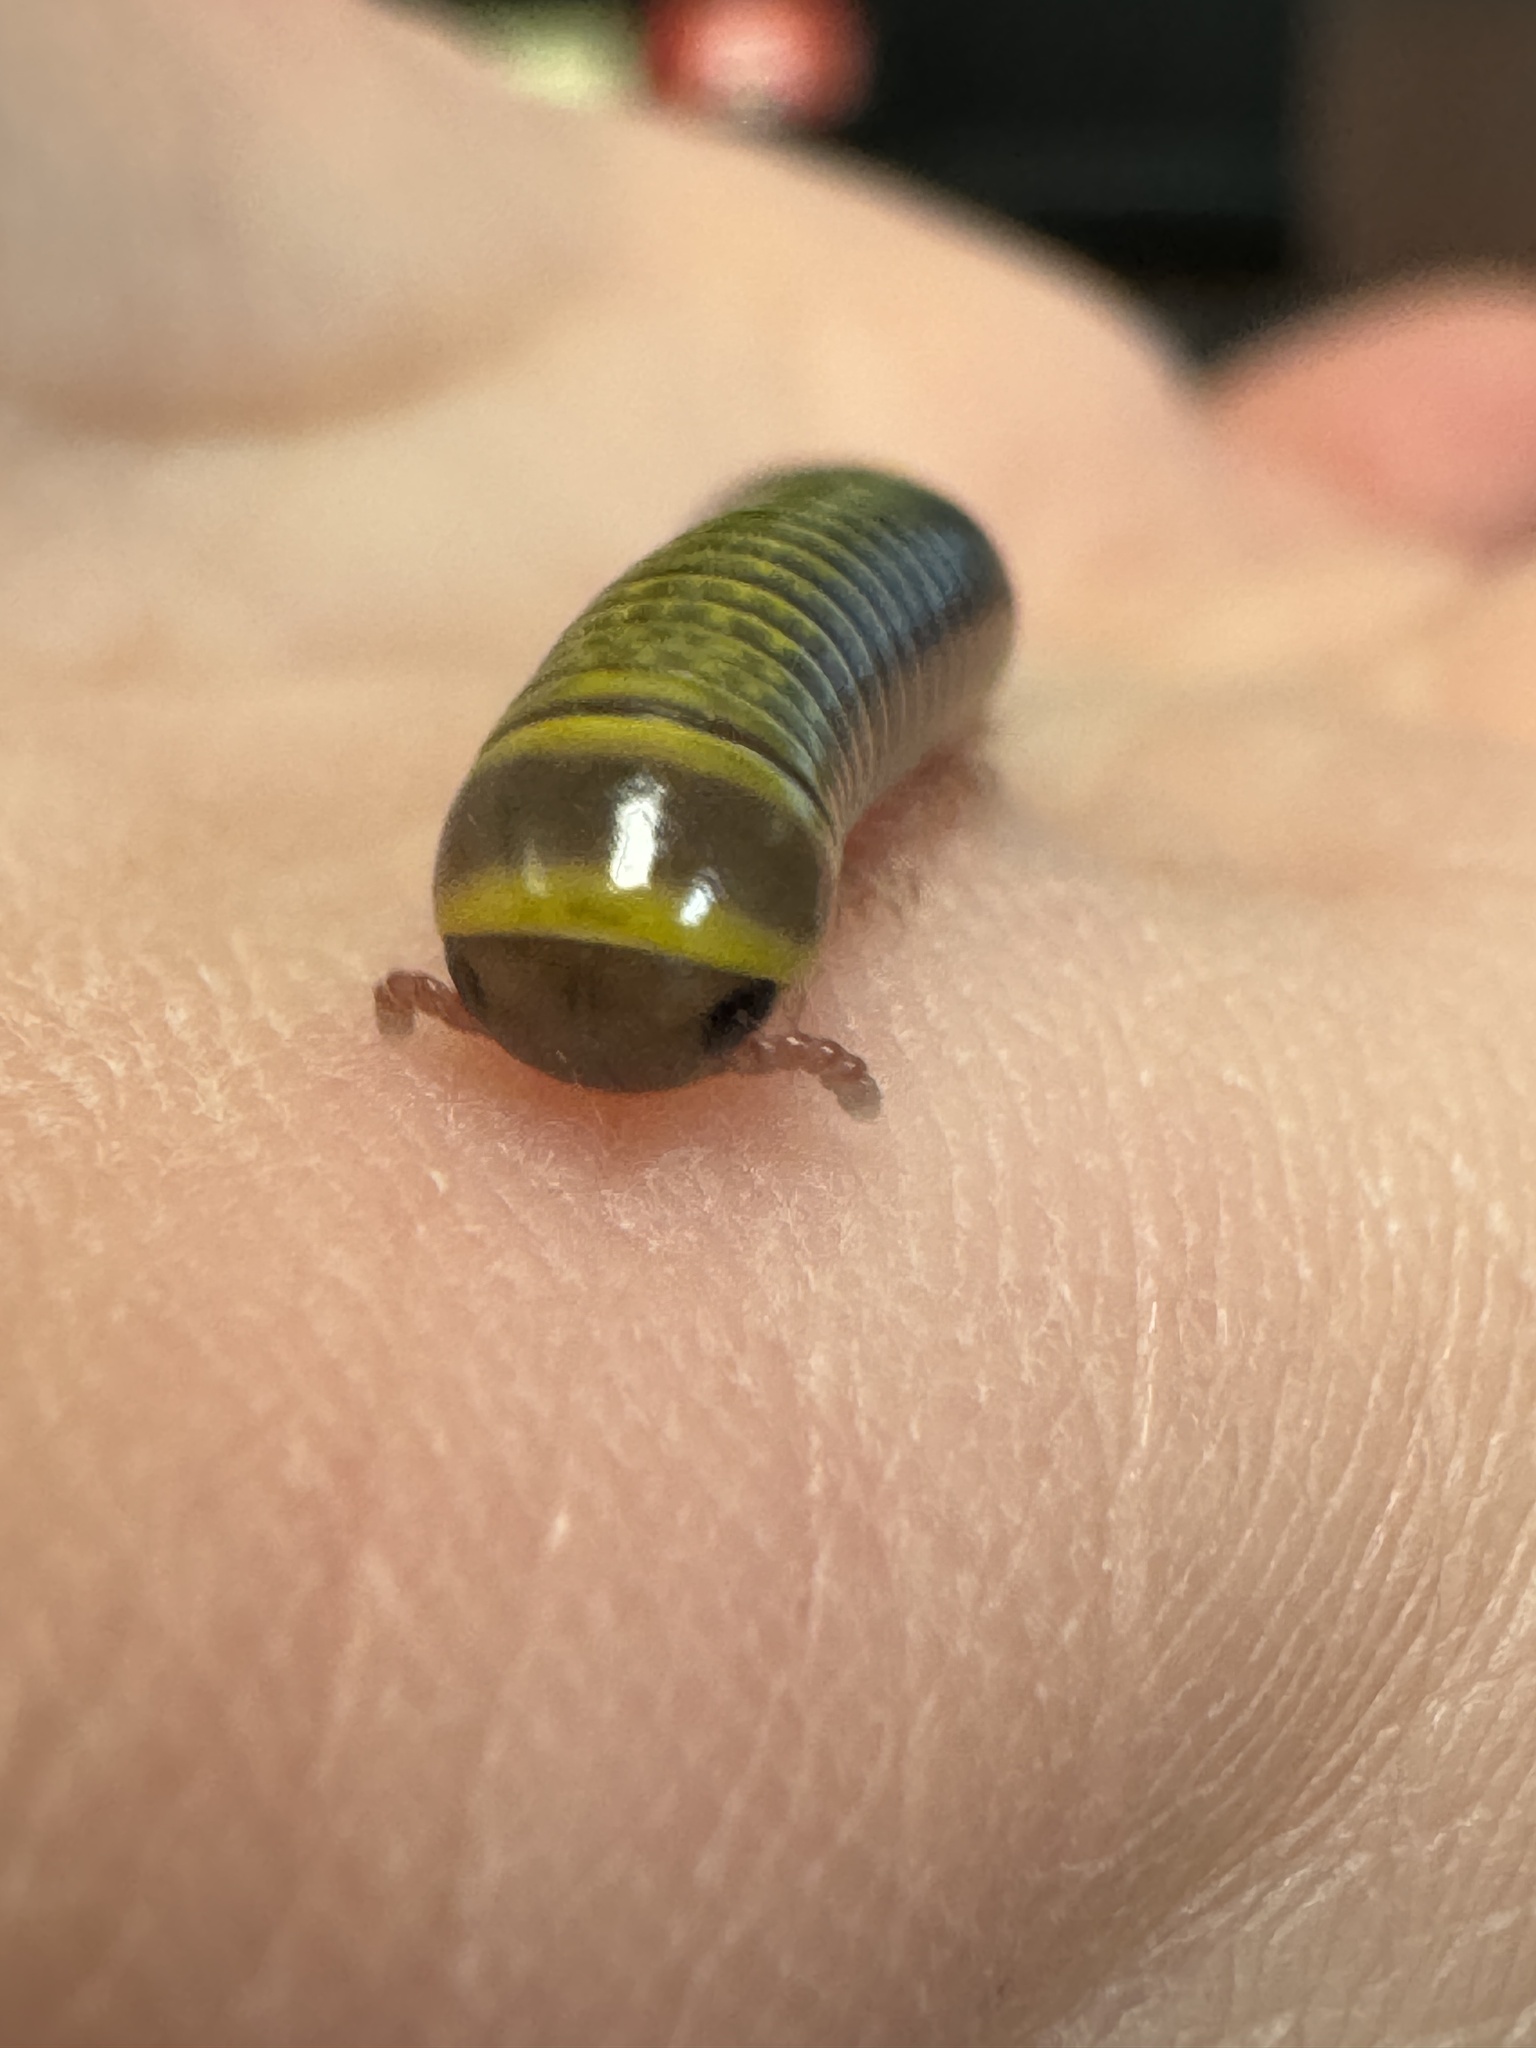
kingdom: Animalia
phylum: Arthropoda
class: Diplopoda
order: Spirobolida
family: Rhinocricidae
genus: Anadenobolus
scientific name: Anadenobolus monilicornis
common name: Caribbean millipede
